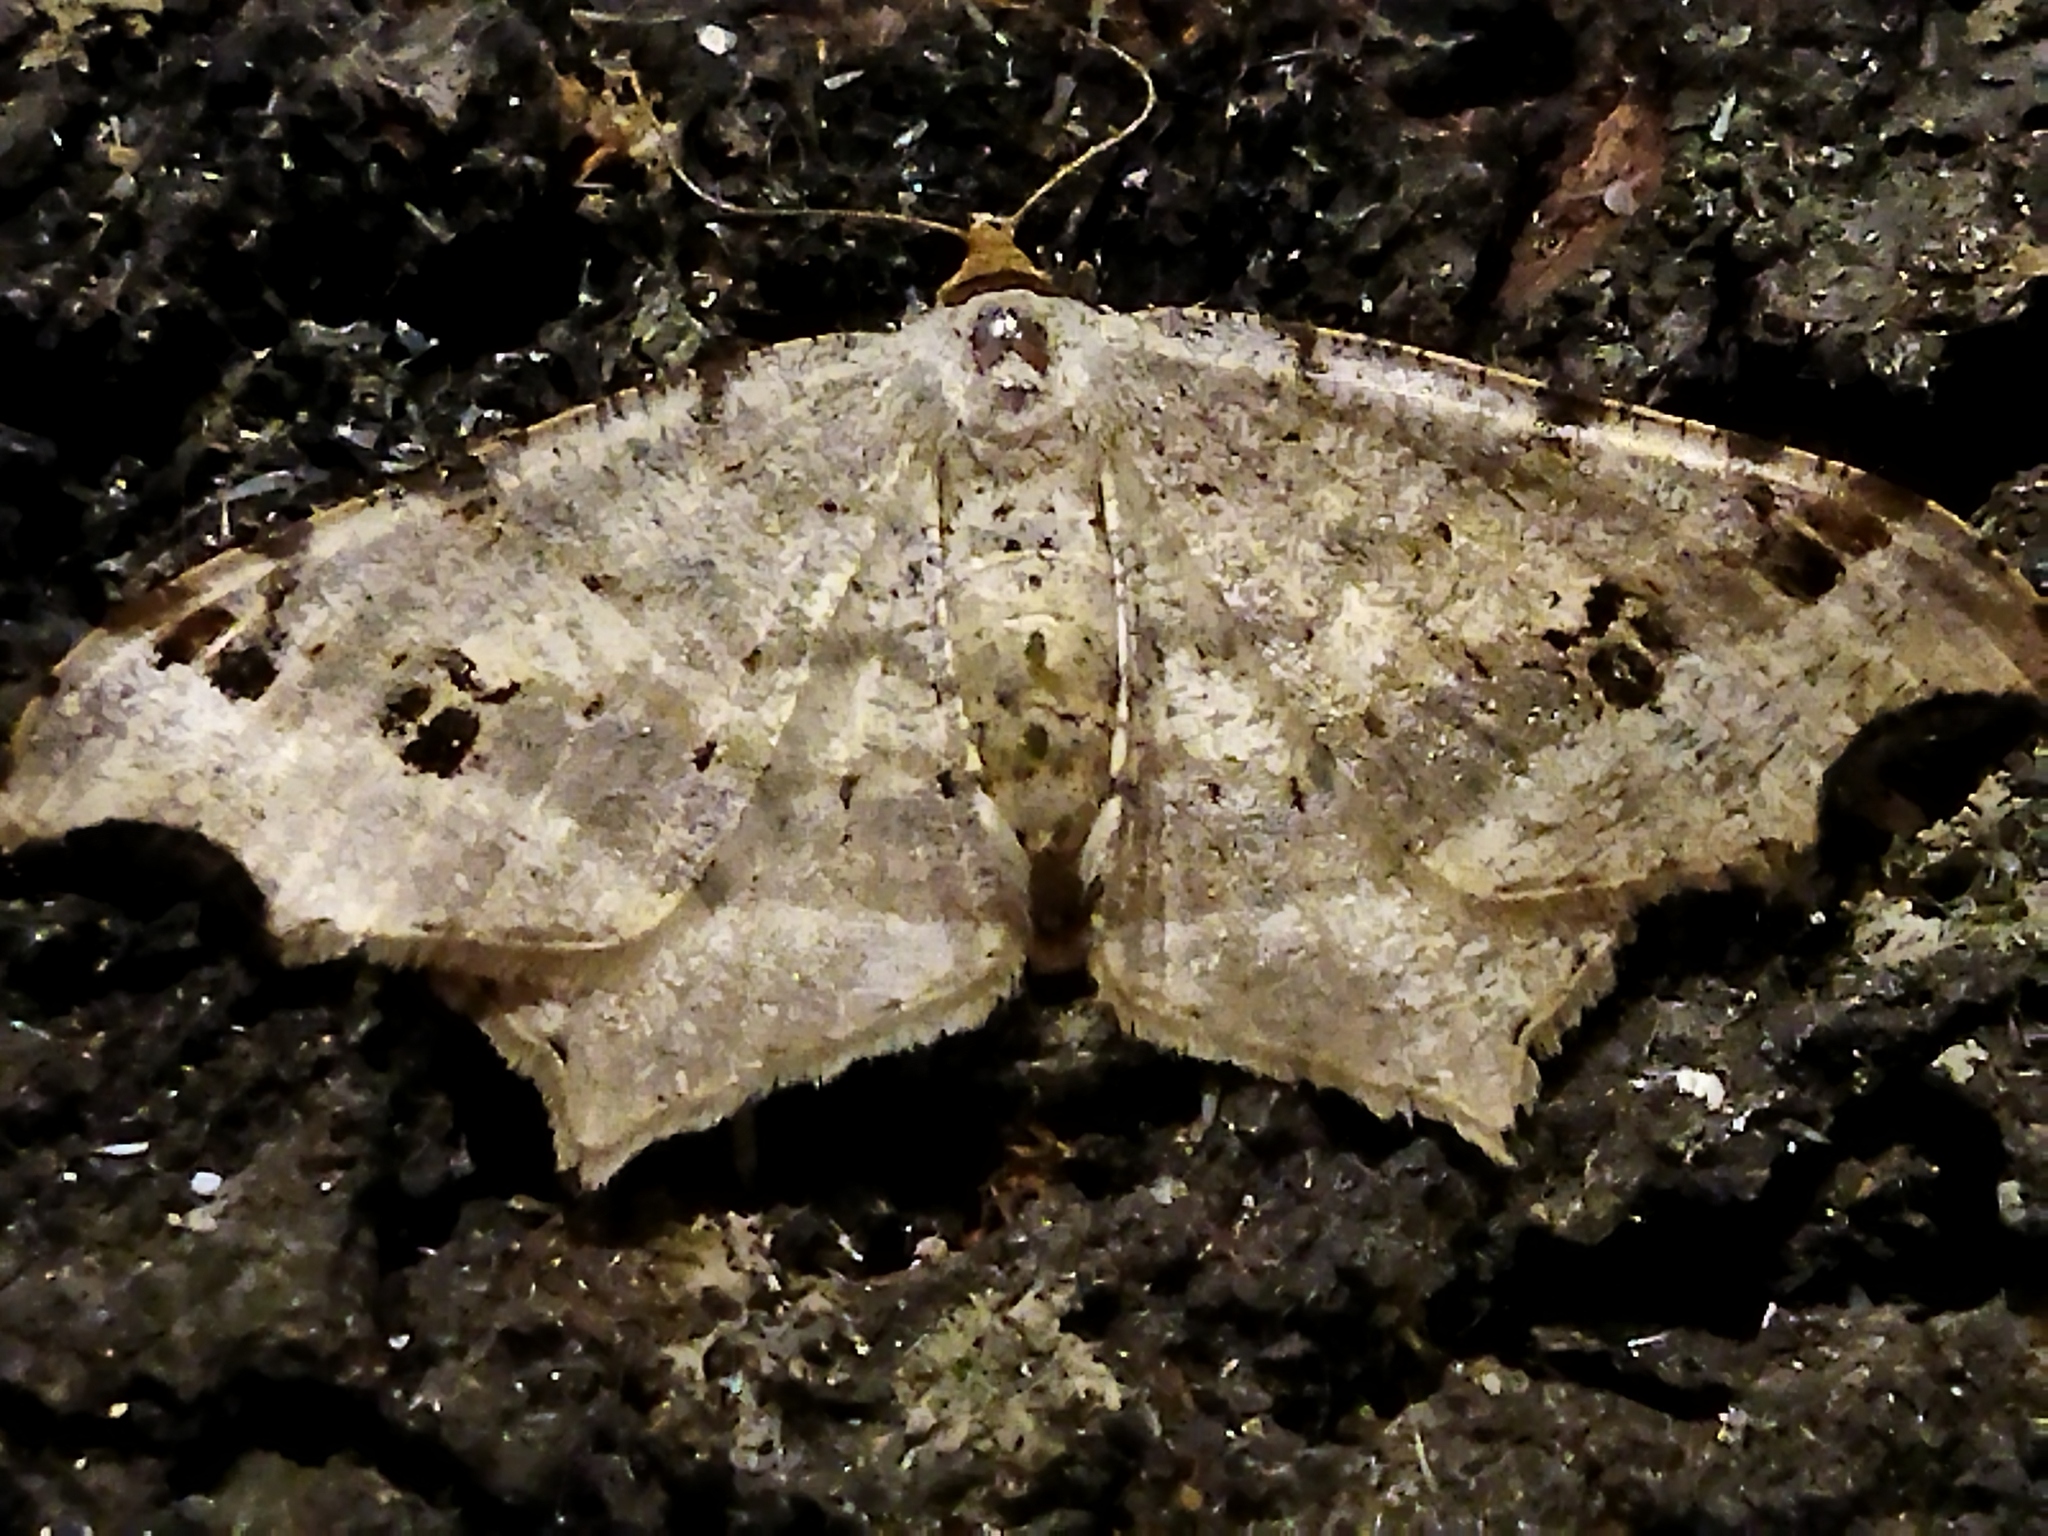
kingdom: Animalia
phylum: Arthropoda
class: Insecta
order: Lepidoptera
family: Geometridae
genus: Macaria
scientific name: Macaria alternata
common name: Sharp-angled peacock
